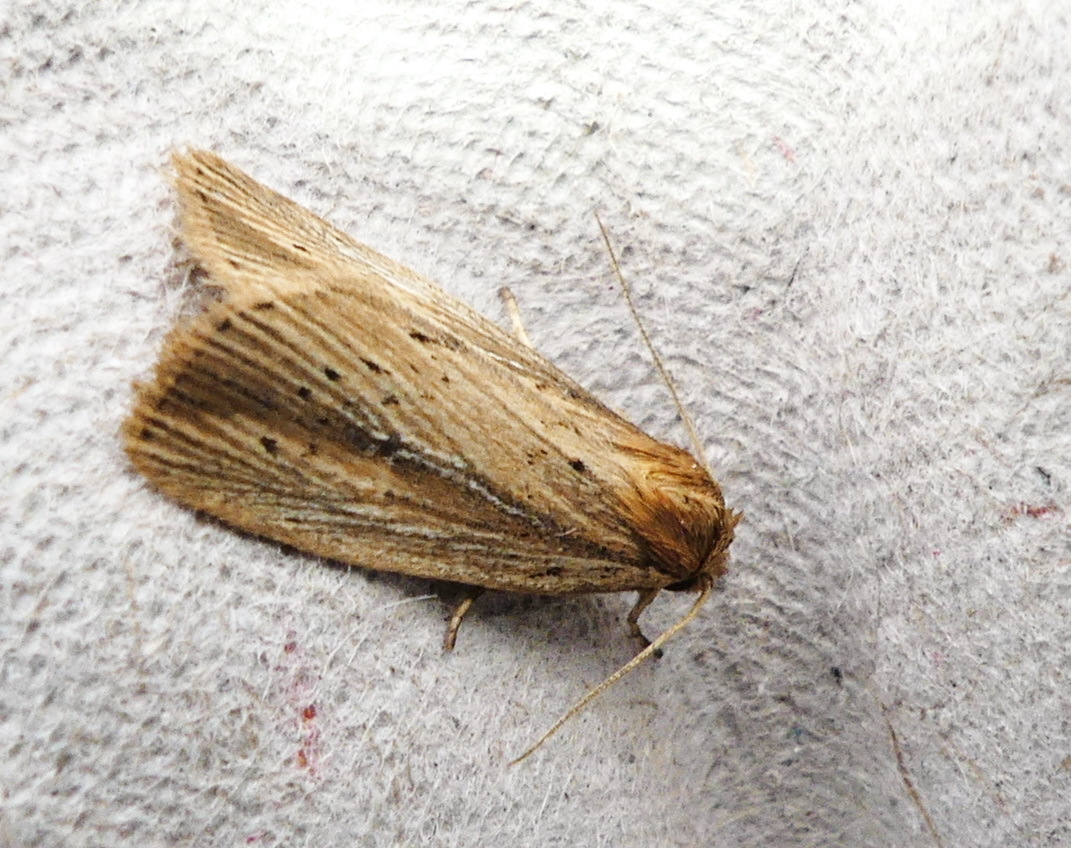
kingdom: Animalia
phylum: Arthropoda
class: Insecta
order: Lepidoptera
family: Noctuidae
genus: Photedes
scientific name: Photedes defecta
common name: Narrow-winged borer moth
